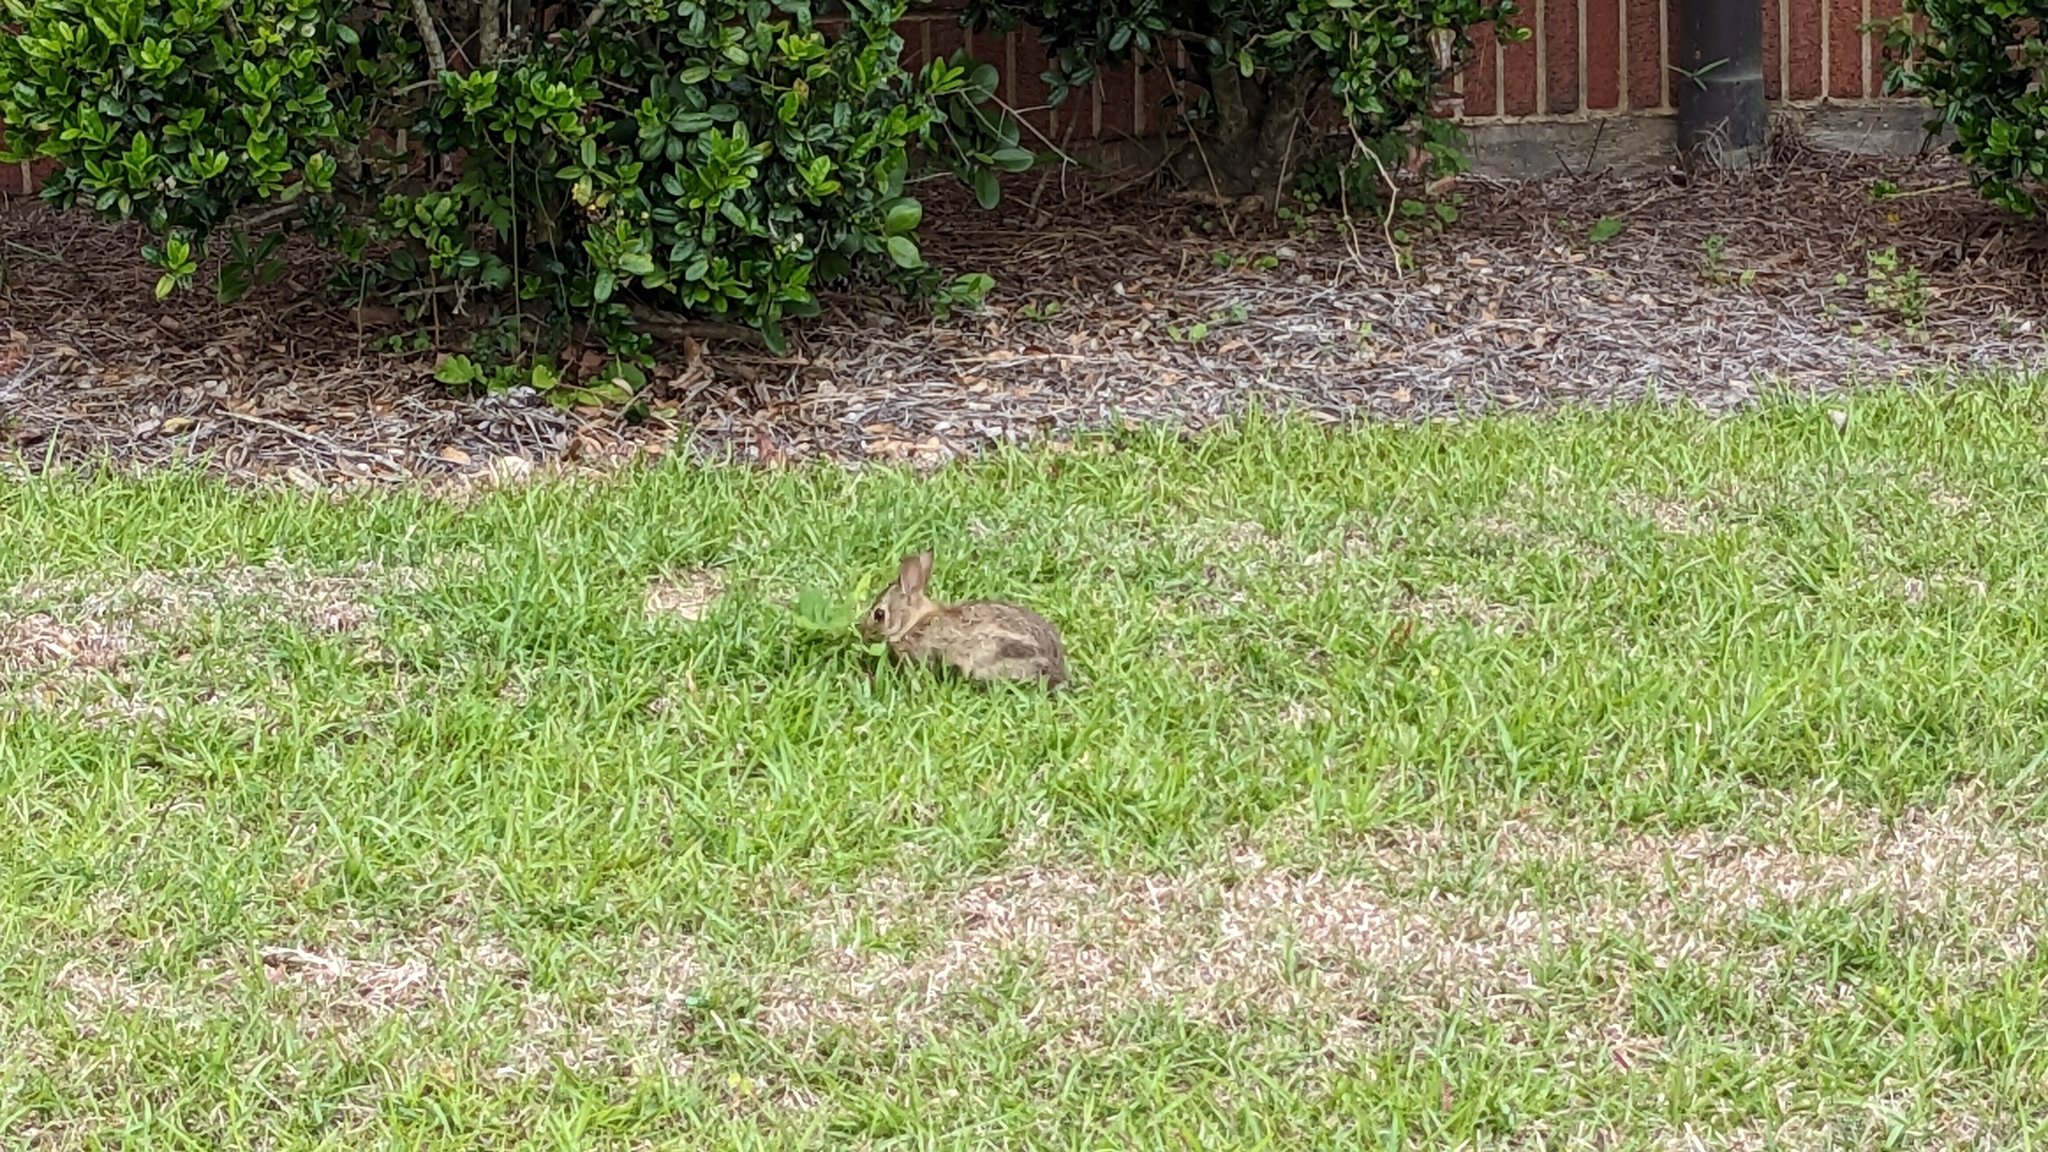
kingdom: Animalia
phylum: Chordata
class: Mammalia
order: Lagomorpha
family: Leporidae
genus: Sylvilagus
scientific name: Sylvilagus floridanus
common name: Eastern cottontail
